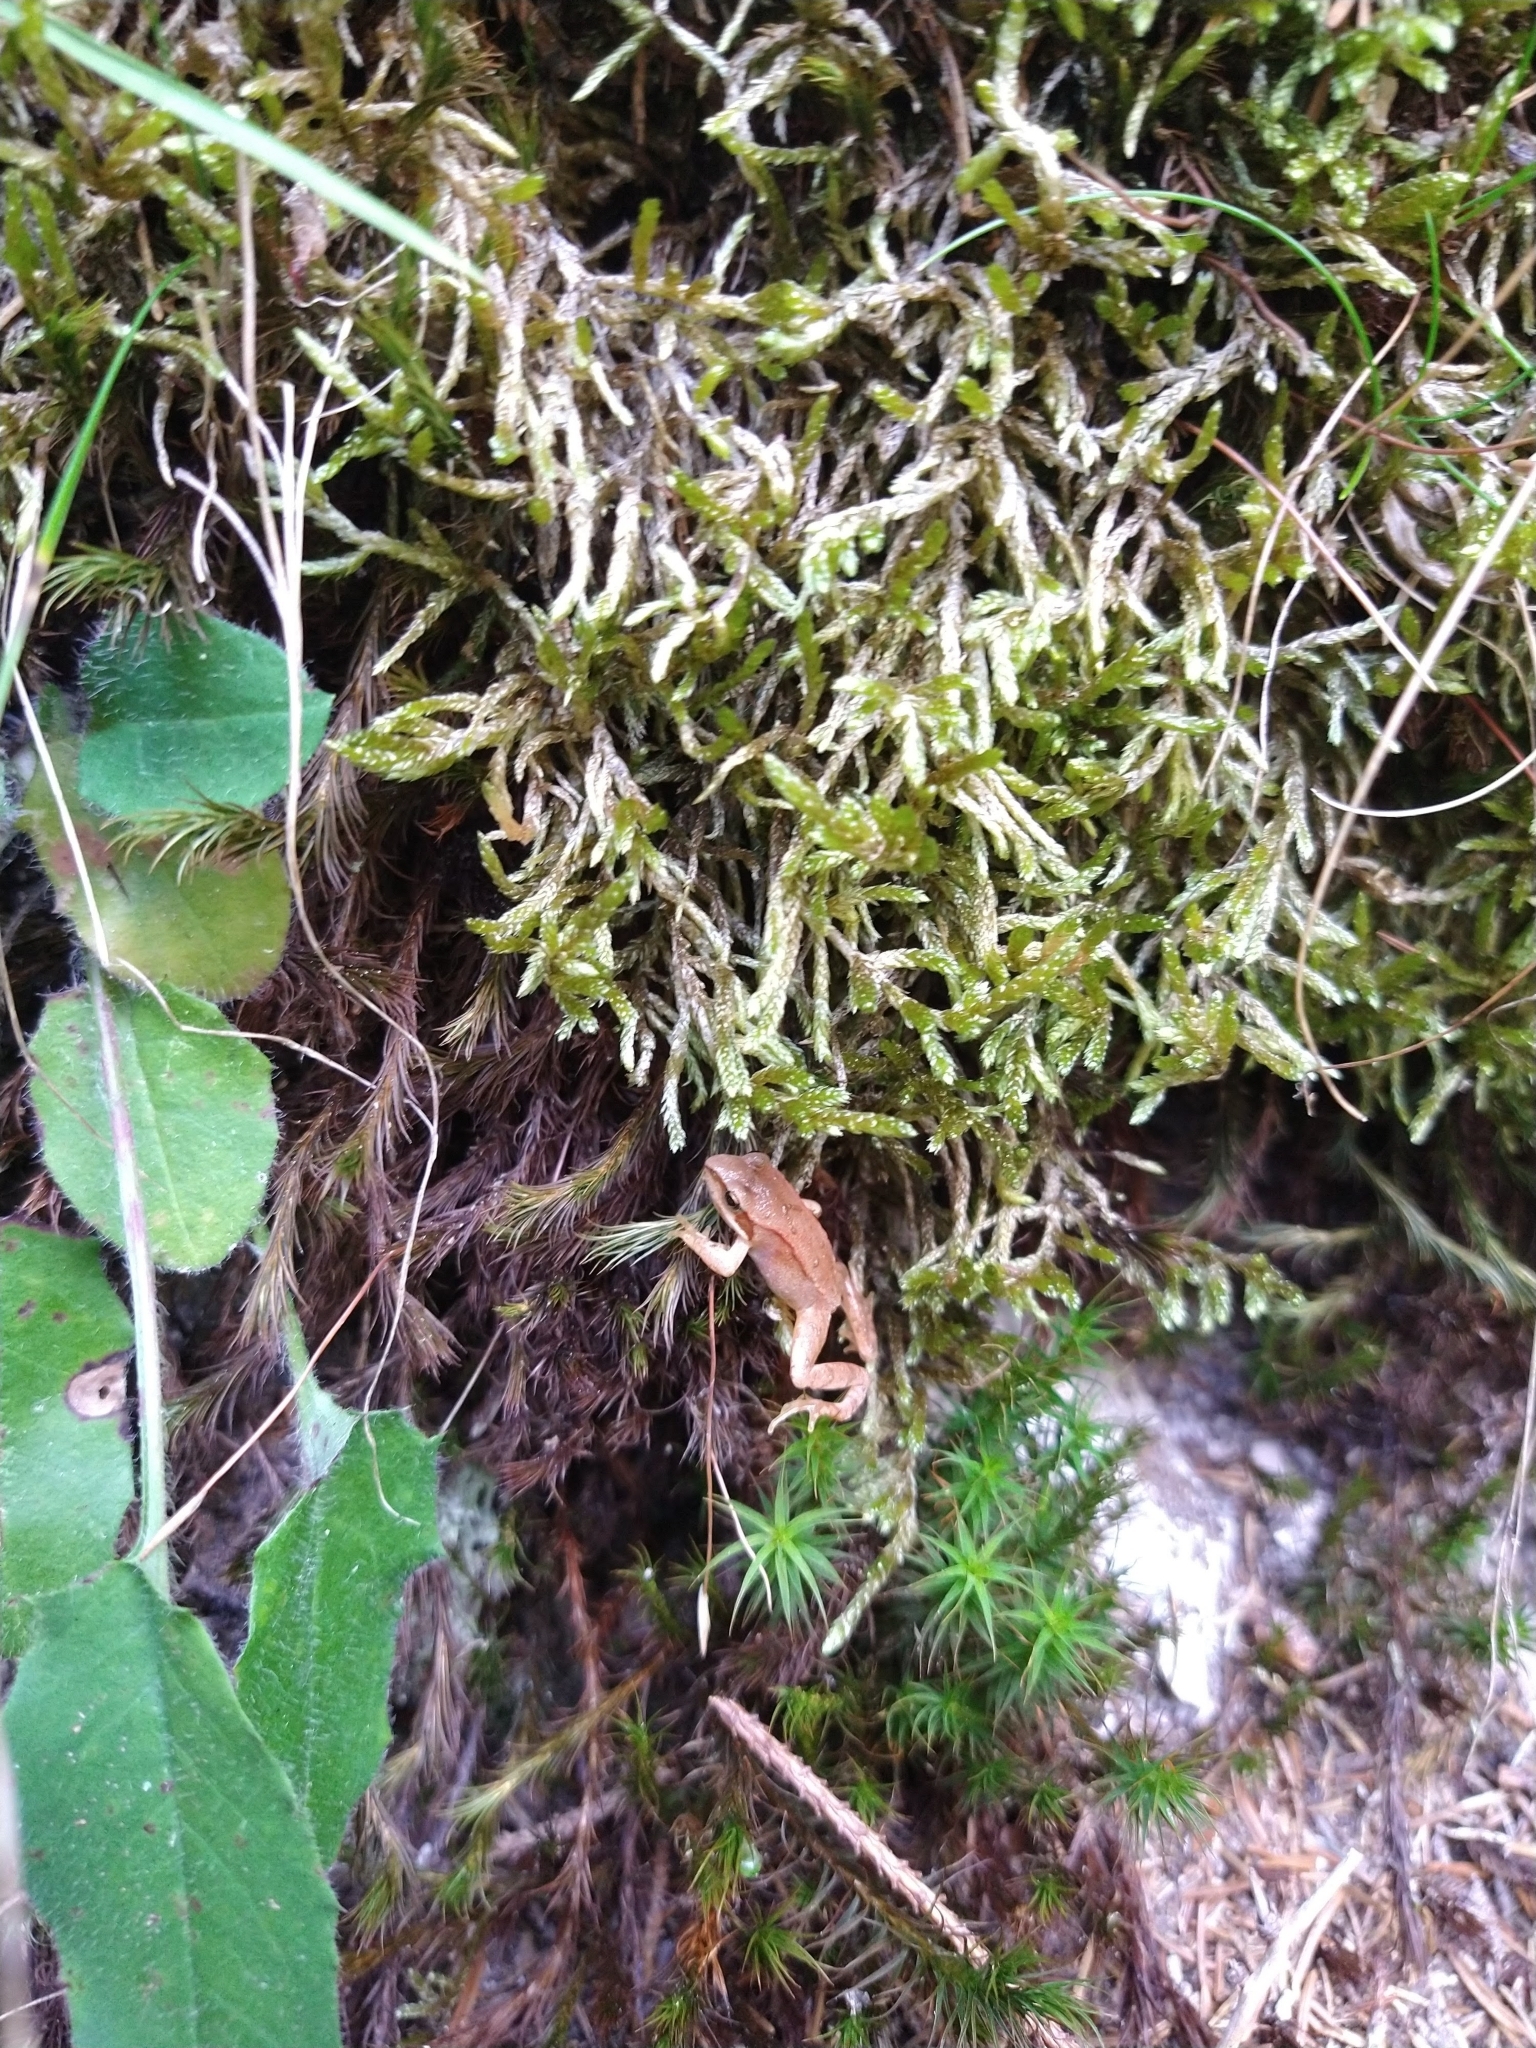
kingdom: Animalia
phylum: Chordata
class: Amphibia
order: Anura
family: Ranidae
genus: Rana
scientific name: Rana temporaria
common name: Common frog
